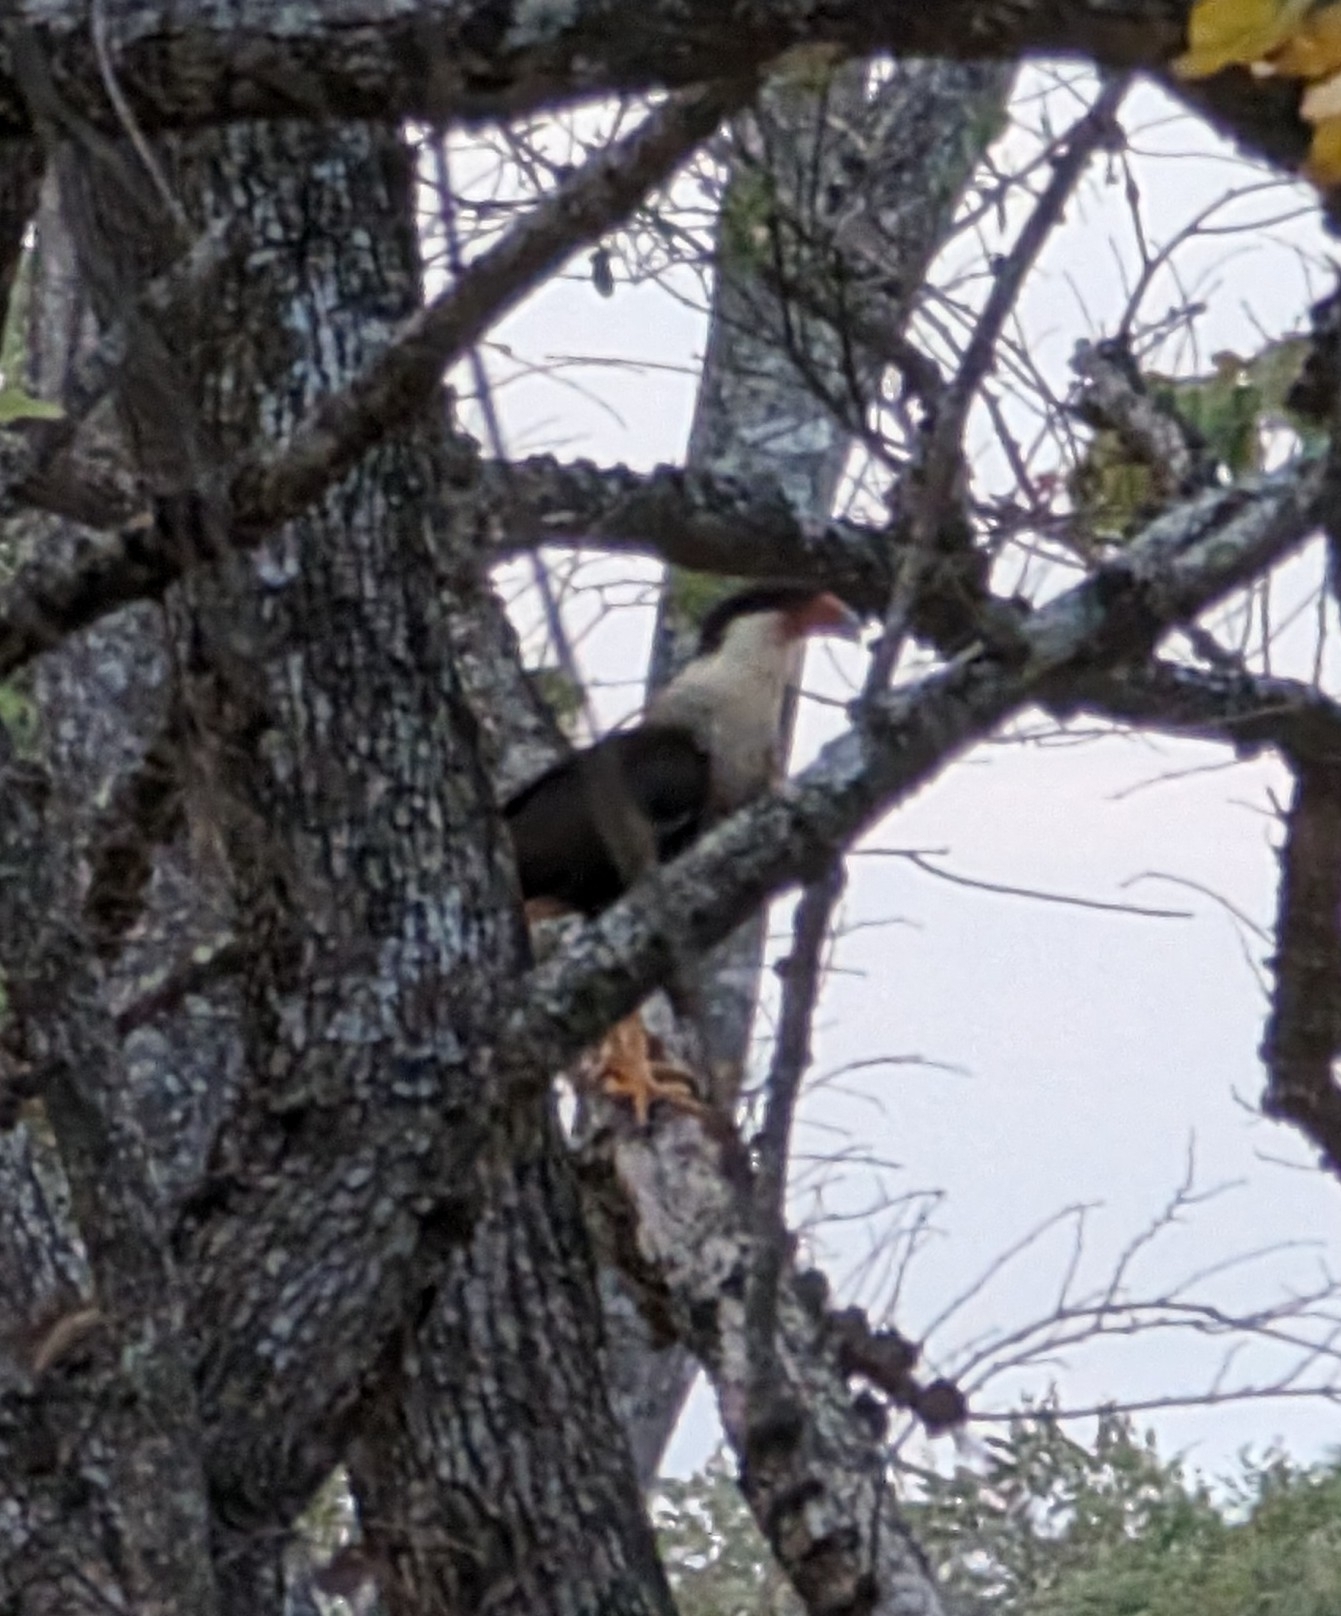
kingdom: Animalia
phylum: Chordata
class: Aves
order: Falconiformes
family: Falconidae
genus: Caracara
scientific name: Caracara plancus
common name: Southern caracara
